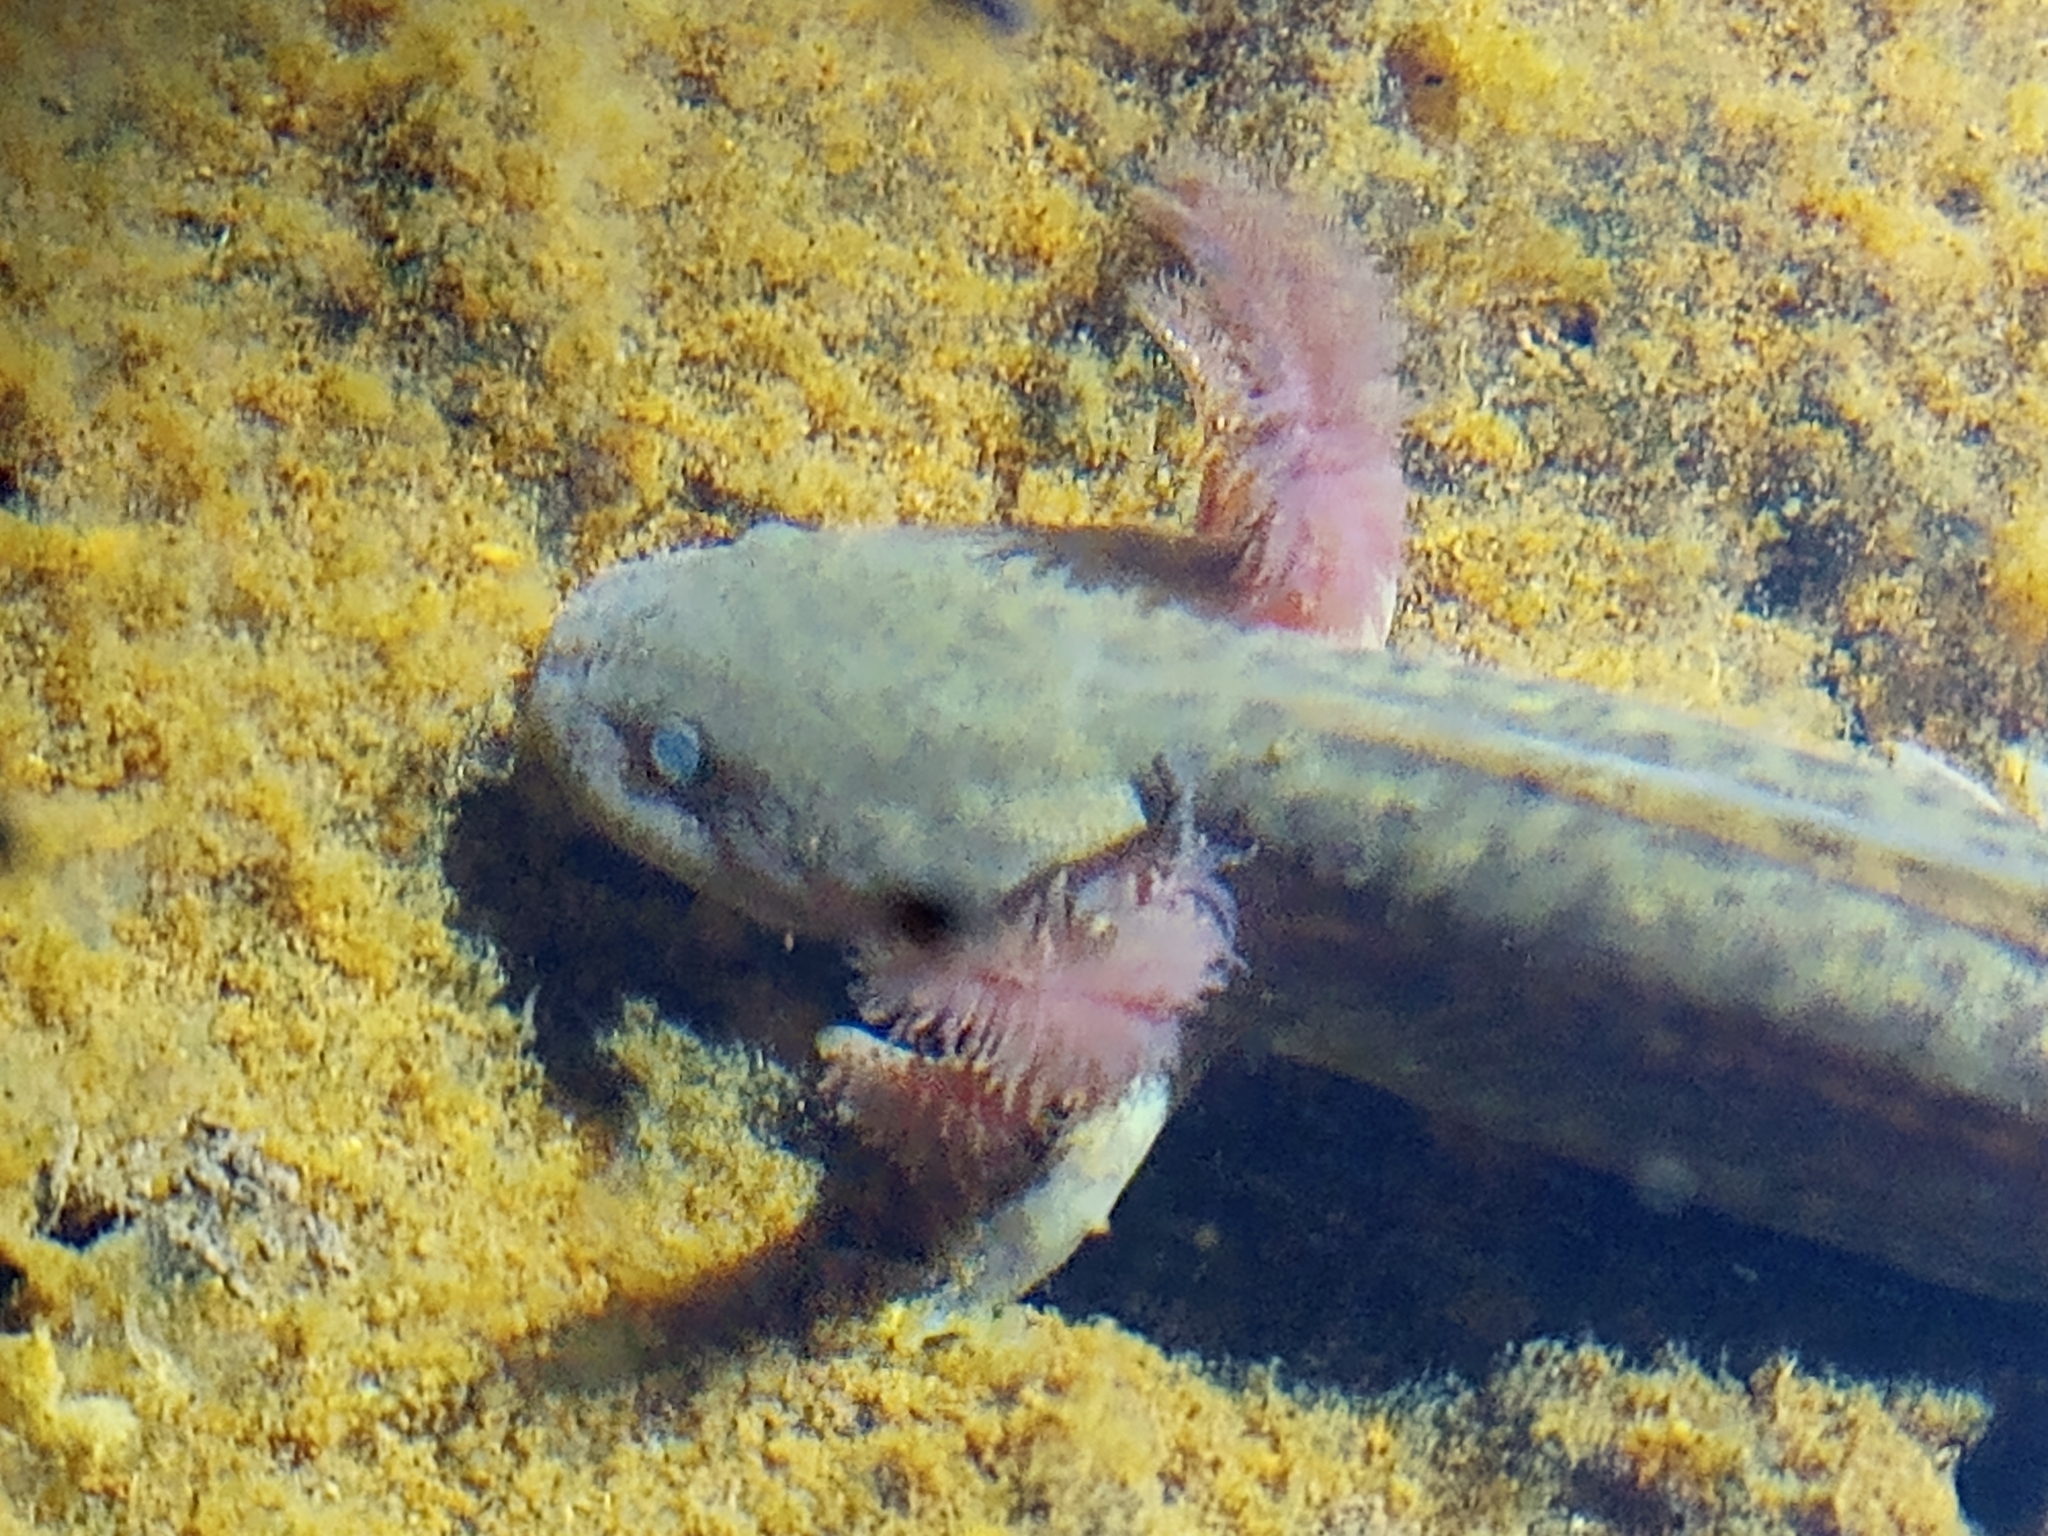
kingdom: Animalia
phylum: Chordata
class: Amphibia
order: Caudata
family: Ambystomatidae
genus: Ambystoma
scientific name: Ambystoma flavipiperatum
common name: Yellow-peppered salamander
